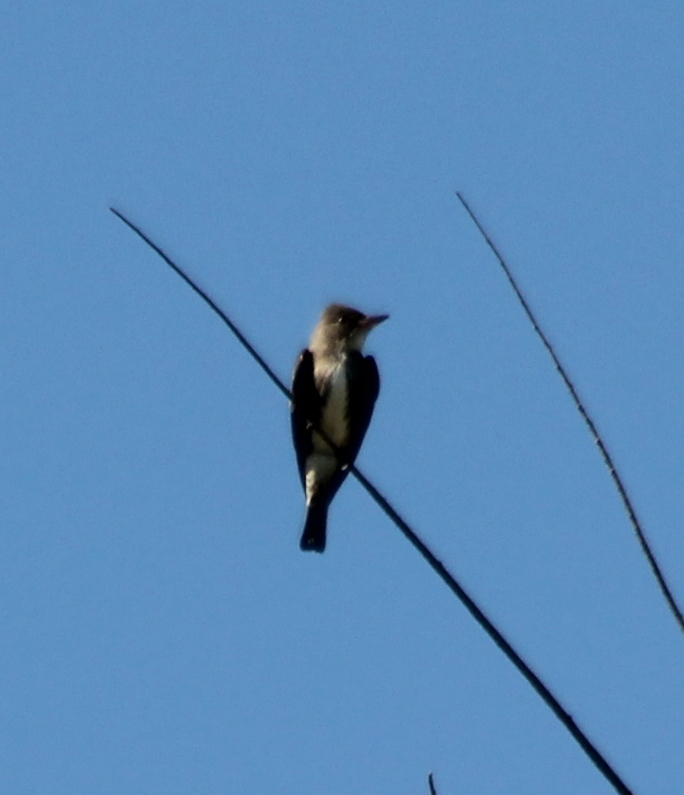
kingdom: Animalia
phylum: Chordata
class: Aves
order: Passeriformes
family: Tyrannidae
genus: Contopus
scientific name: Contopus cooperi
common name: Olive-sided flycatcher
